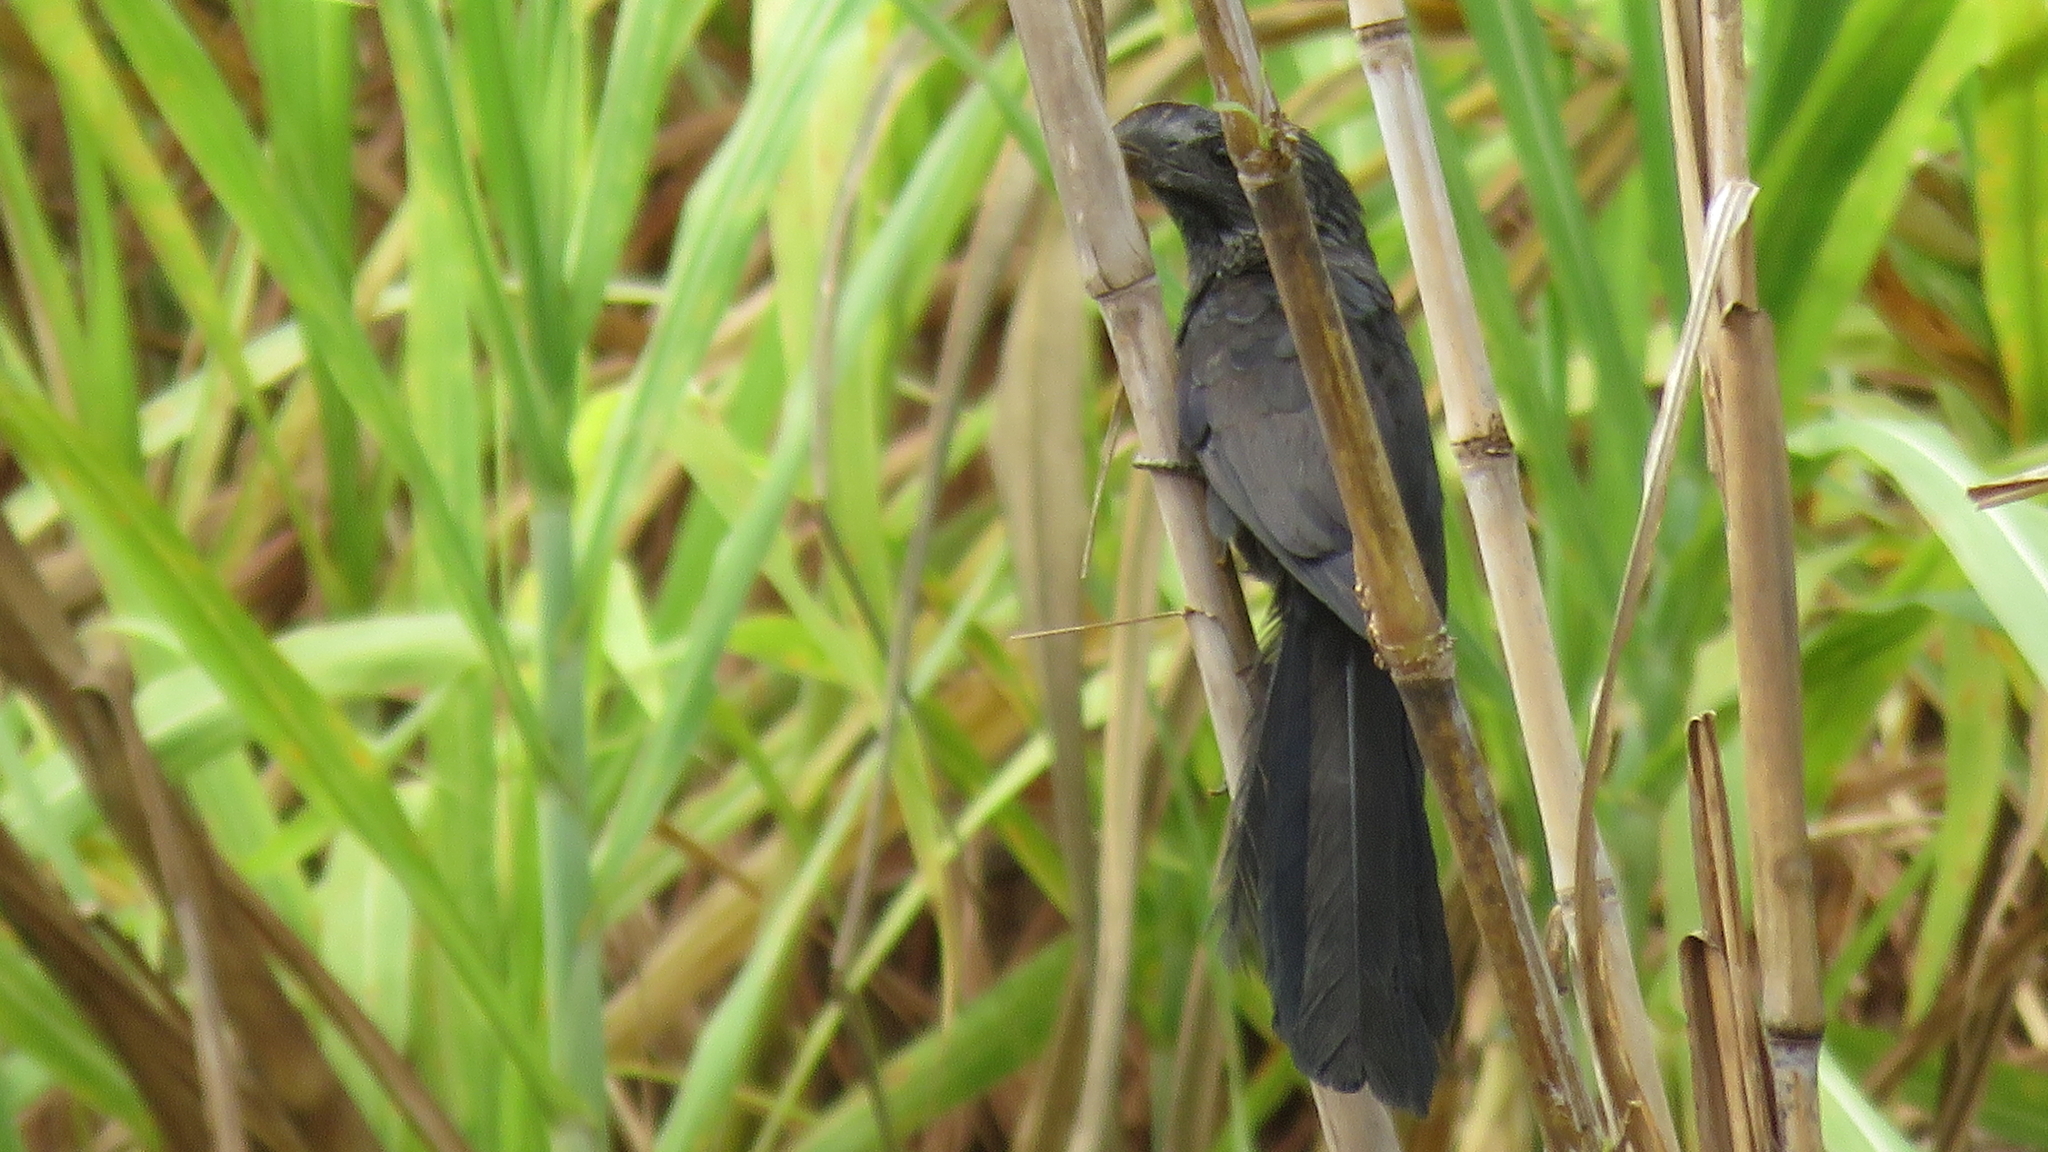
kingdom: Animalia
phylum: Chordata
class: Aves
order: Cuculiformes
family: Cuculidae
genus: Crotophaga
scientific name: Crotophaga ani
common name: Smooth-billed ani
